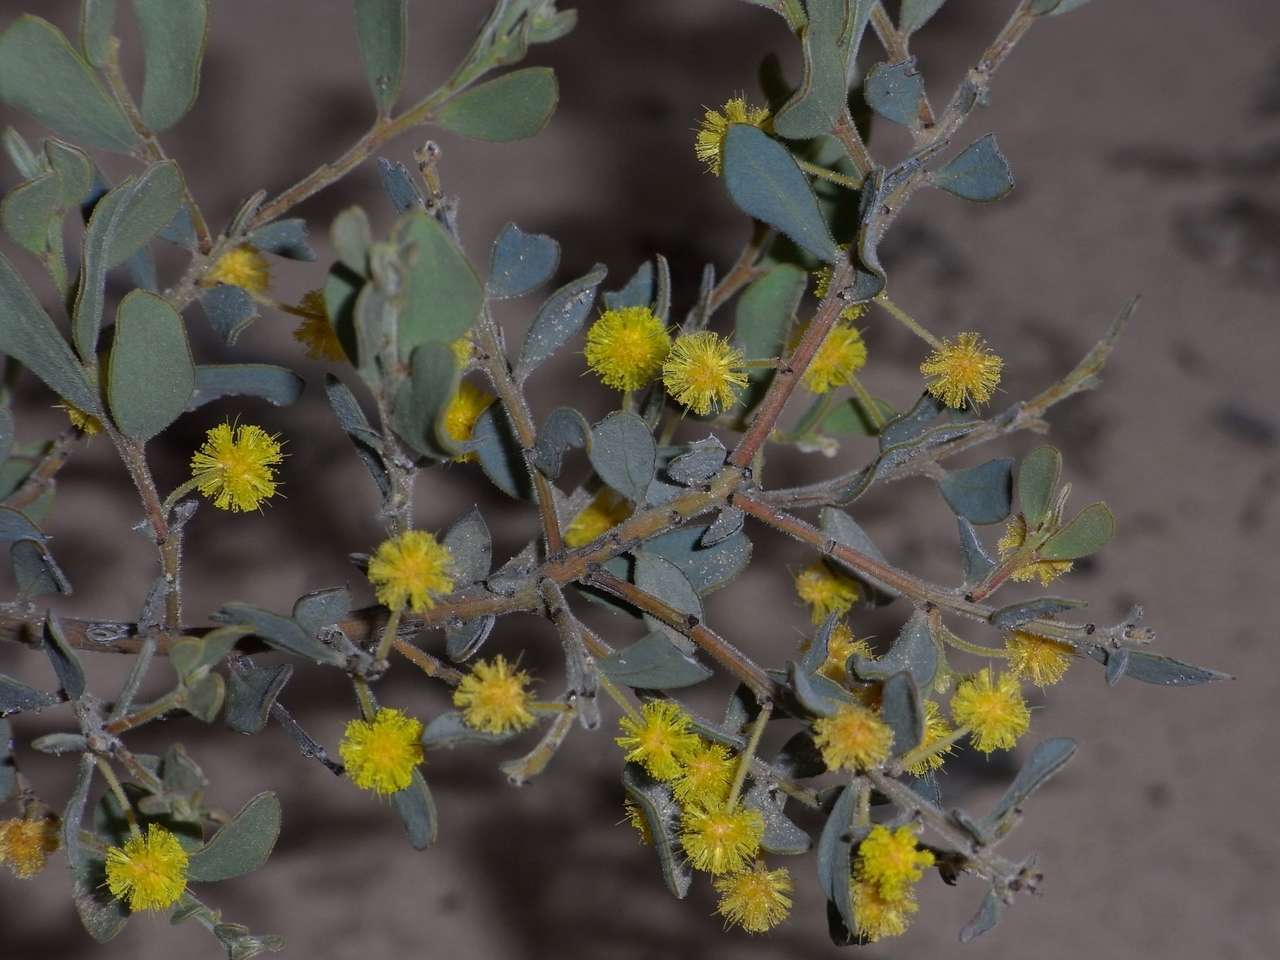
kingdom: Plantae
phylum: Tracheophyta
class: Magnoliopsida
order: Fabales
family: Fabaceae
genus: Acacia
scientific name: Acacia brachybotrya
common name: Grey mulga
